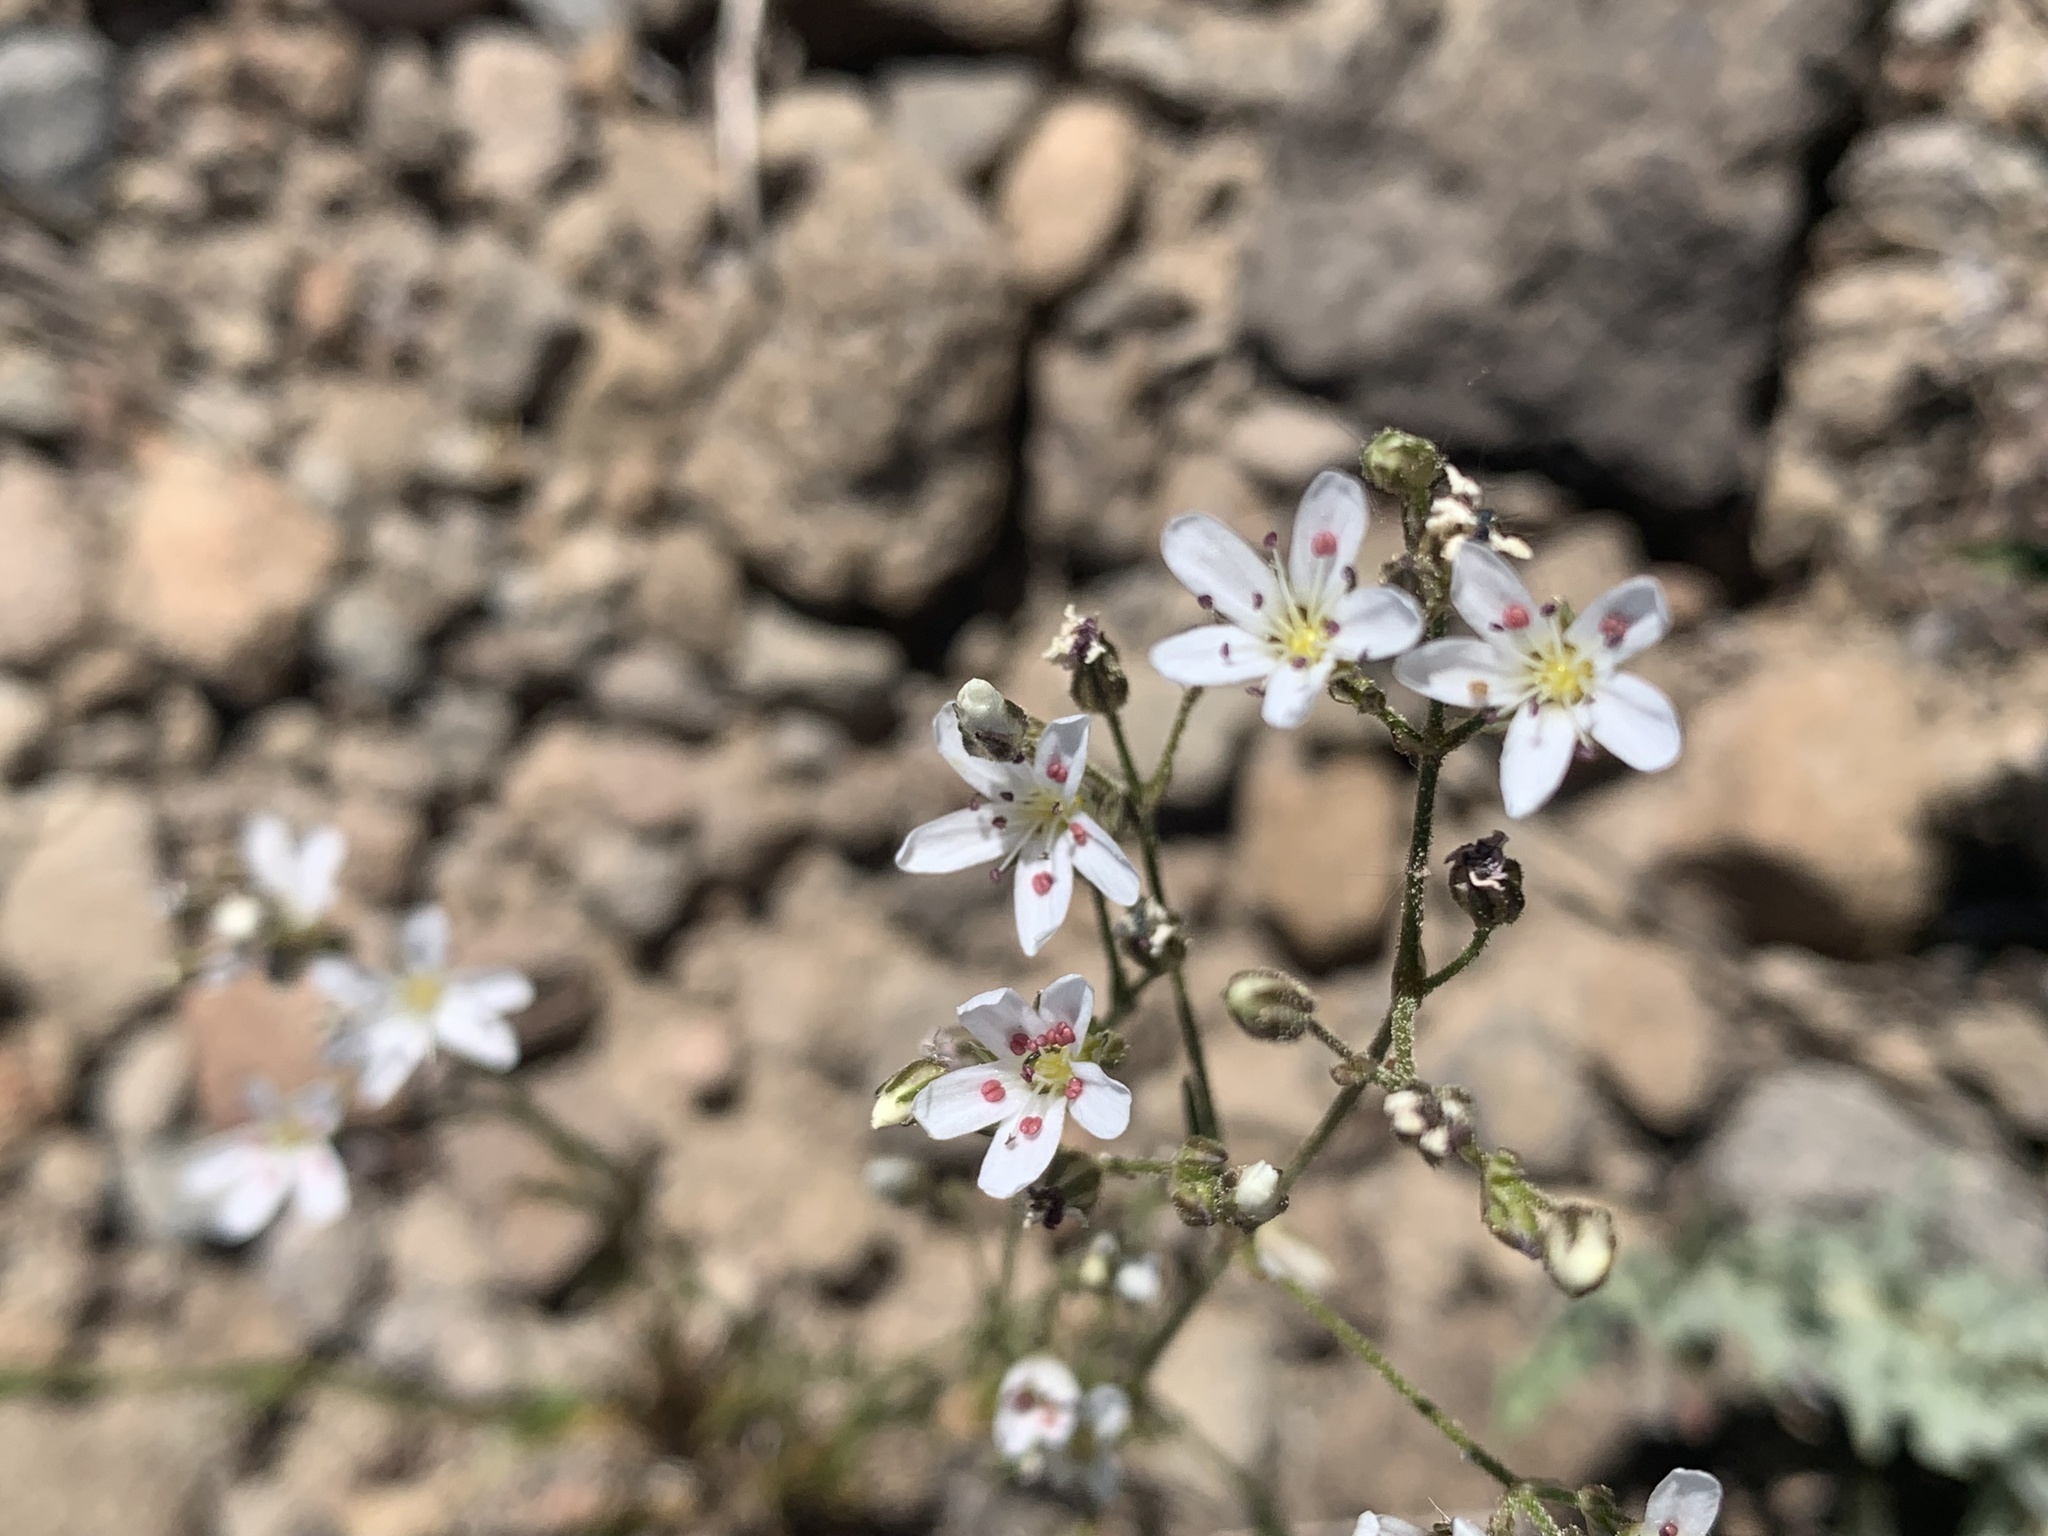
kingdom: Plantae
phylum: Tracheophyta
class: Magnoliopsida
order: Caryophyllales
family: Caryophyllaceae
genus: Eremogone
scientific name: Eremogone kingii
